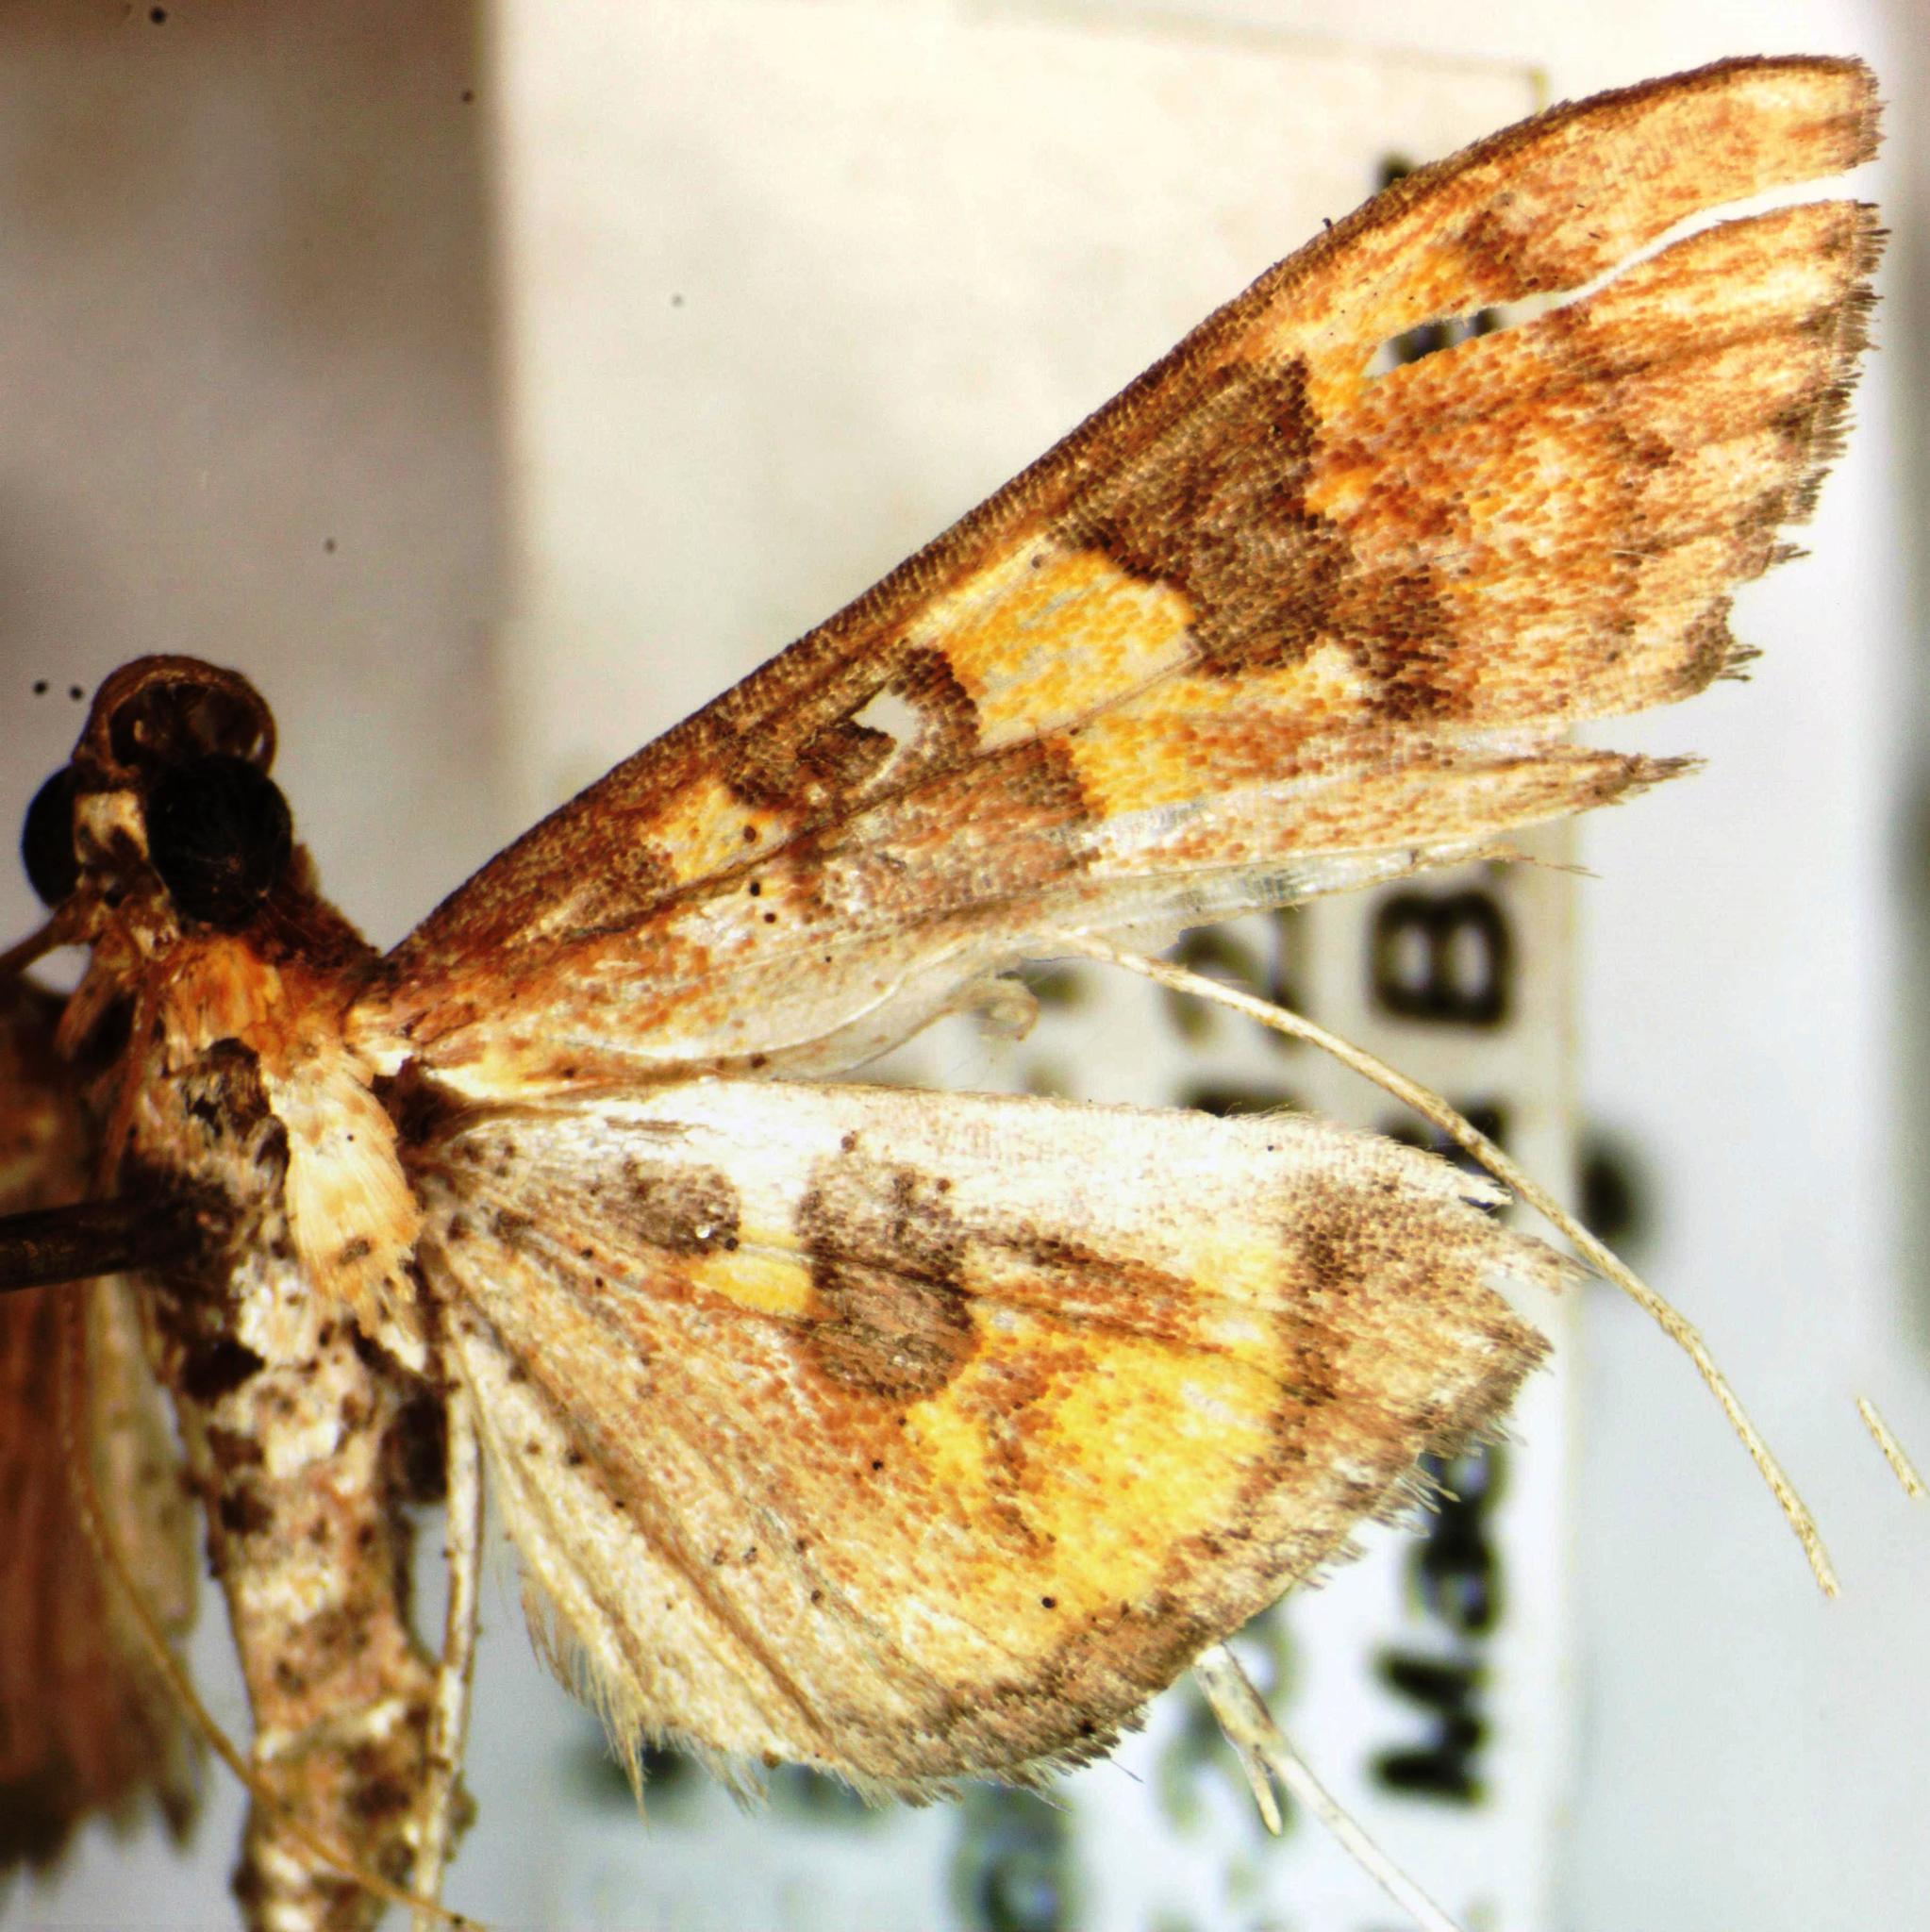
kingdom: Animalia
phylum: Arthropoda
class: Insecta
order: Lepidoptera
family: Crambidae
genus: Trithyris
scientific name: Trithyris
